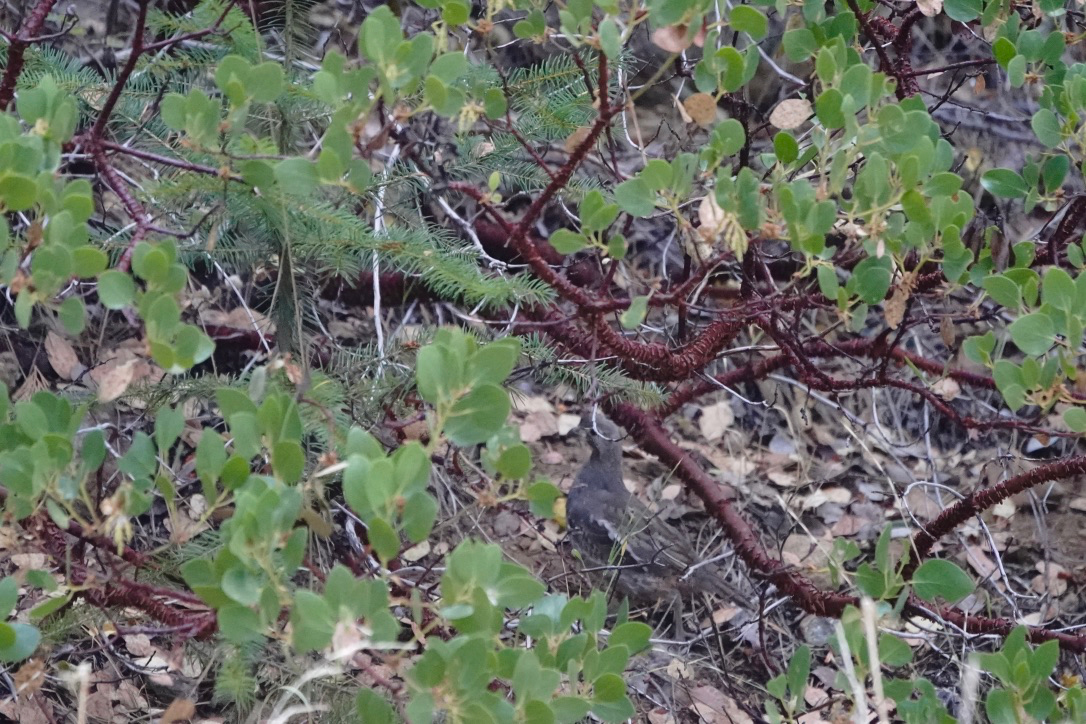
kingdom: Animalia
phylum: Chordata
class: Aves
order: Galliformes
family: Odontophoridae
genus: Oreortyx
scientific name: Oreortyx pictus
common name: Mountain quail
